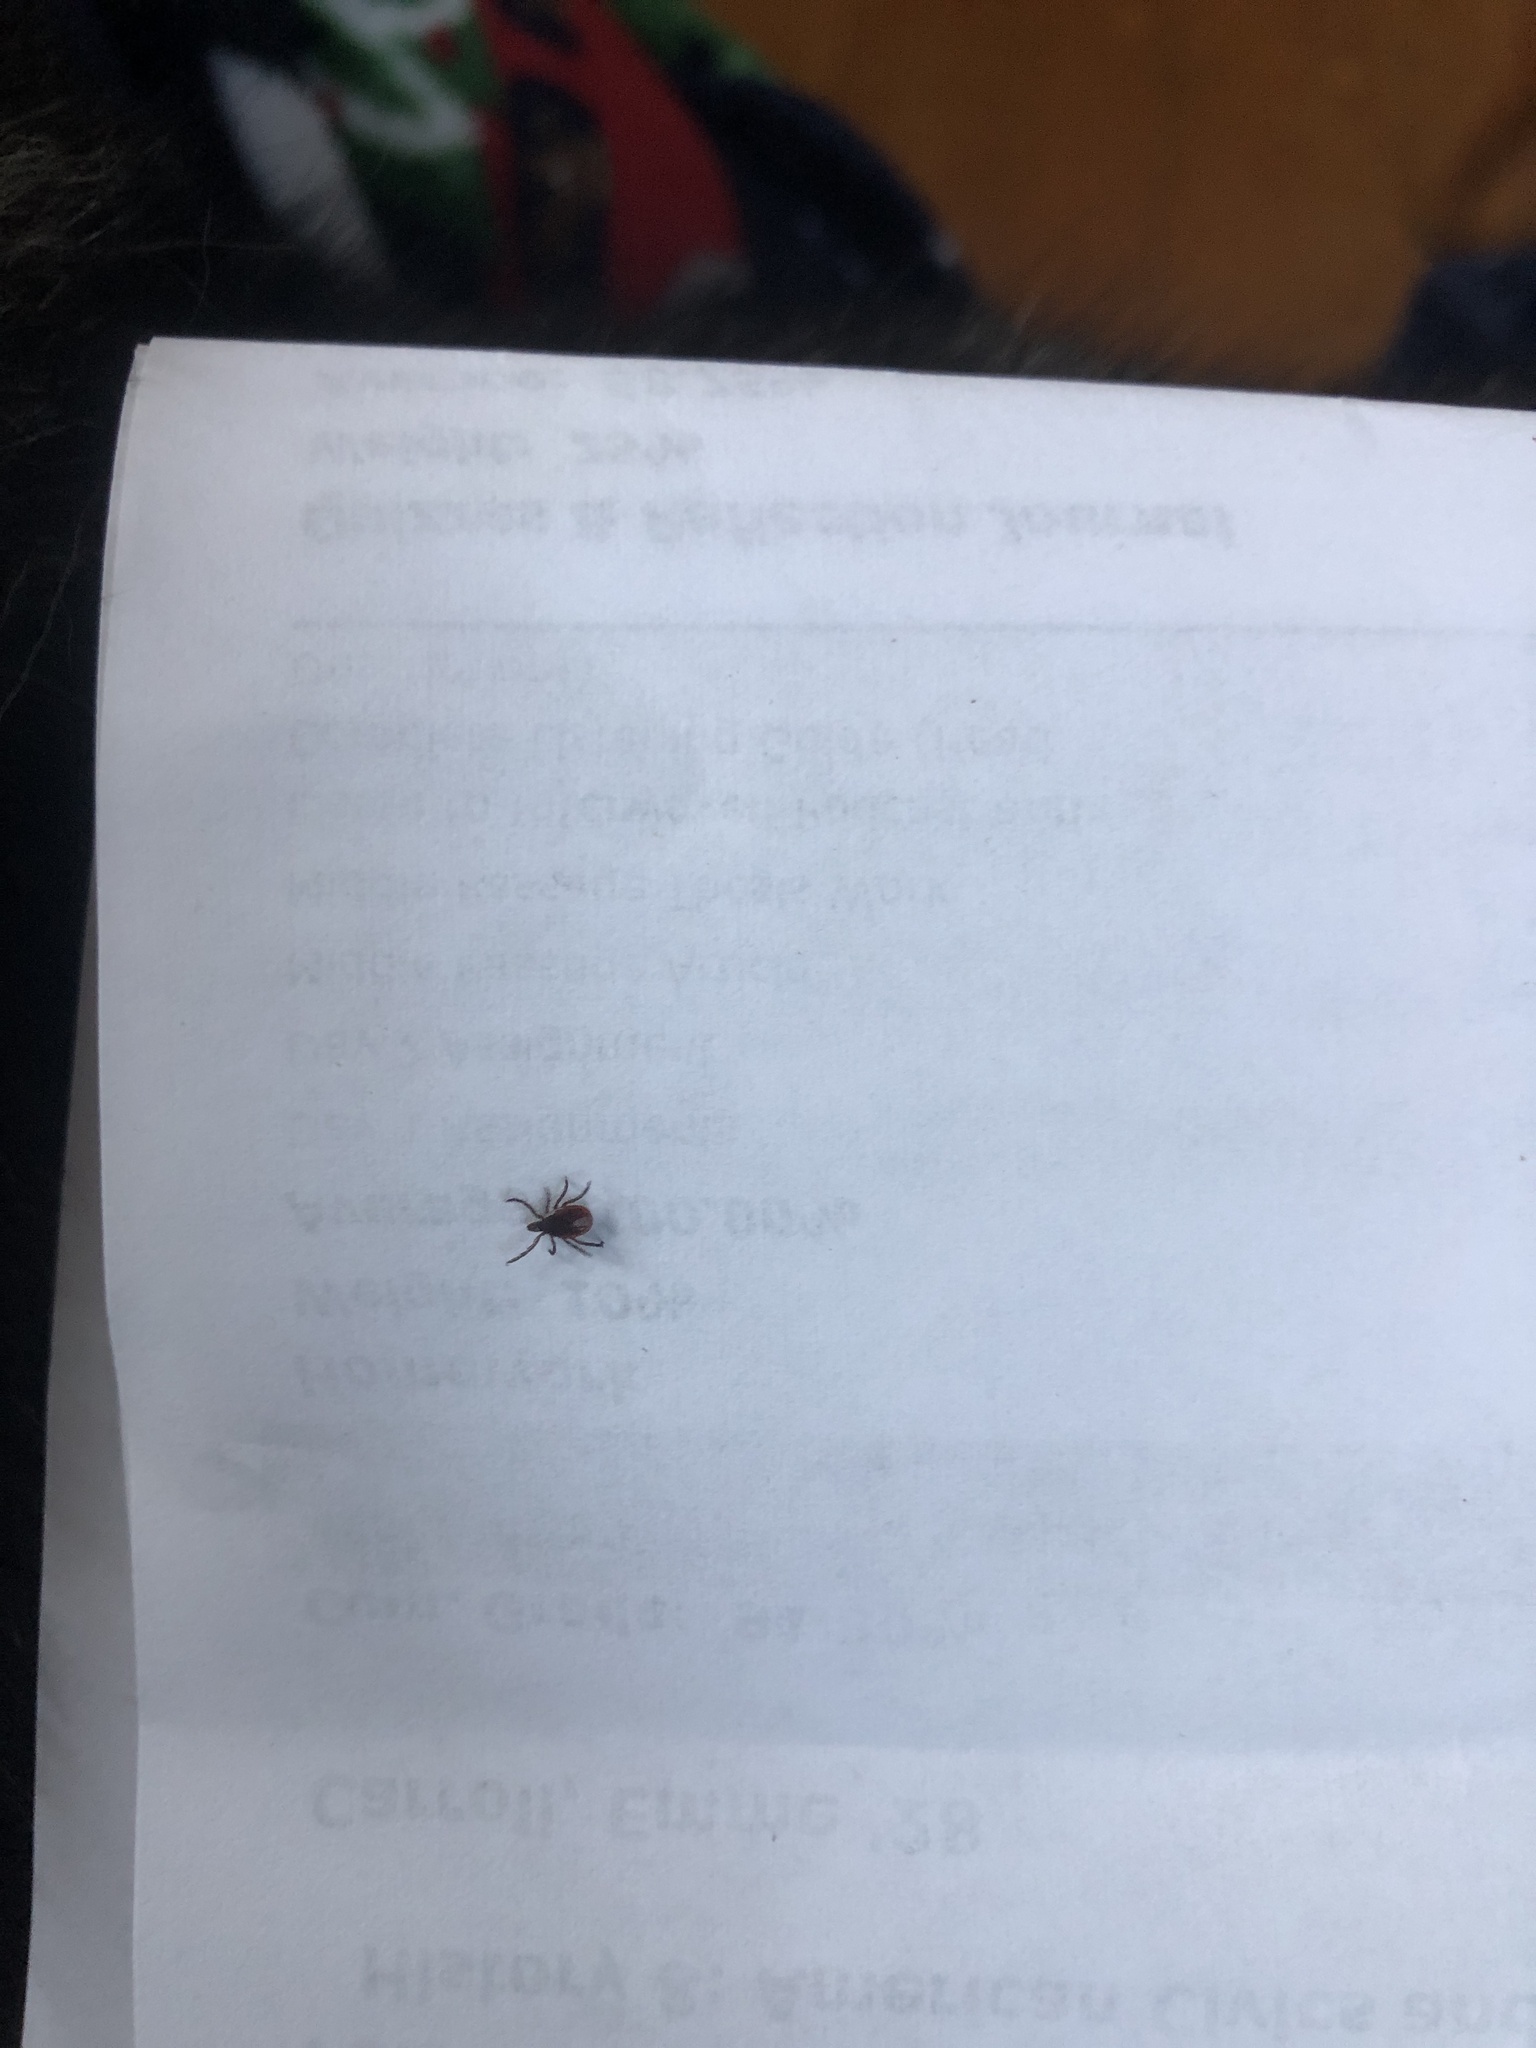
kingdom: Animalia
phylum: Arthropoda
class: Arachnida
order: Ixodida
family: Ixodidae
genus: Ixodes
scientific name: Ixodes scapularis
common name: Black legged tick
